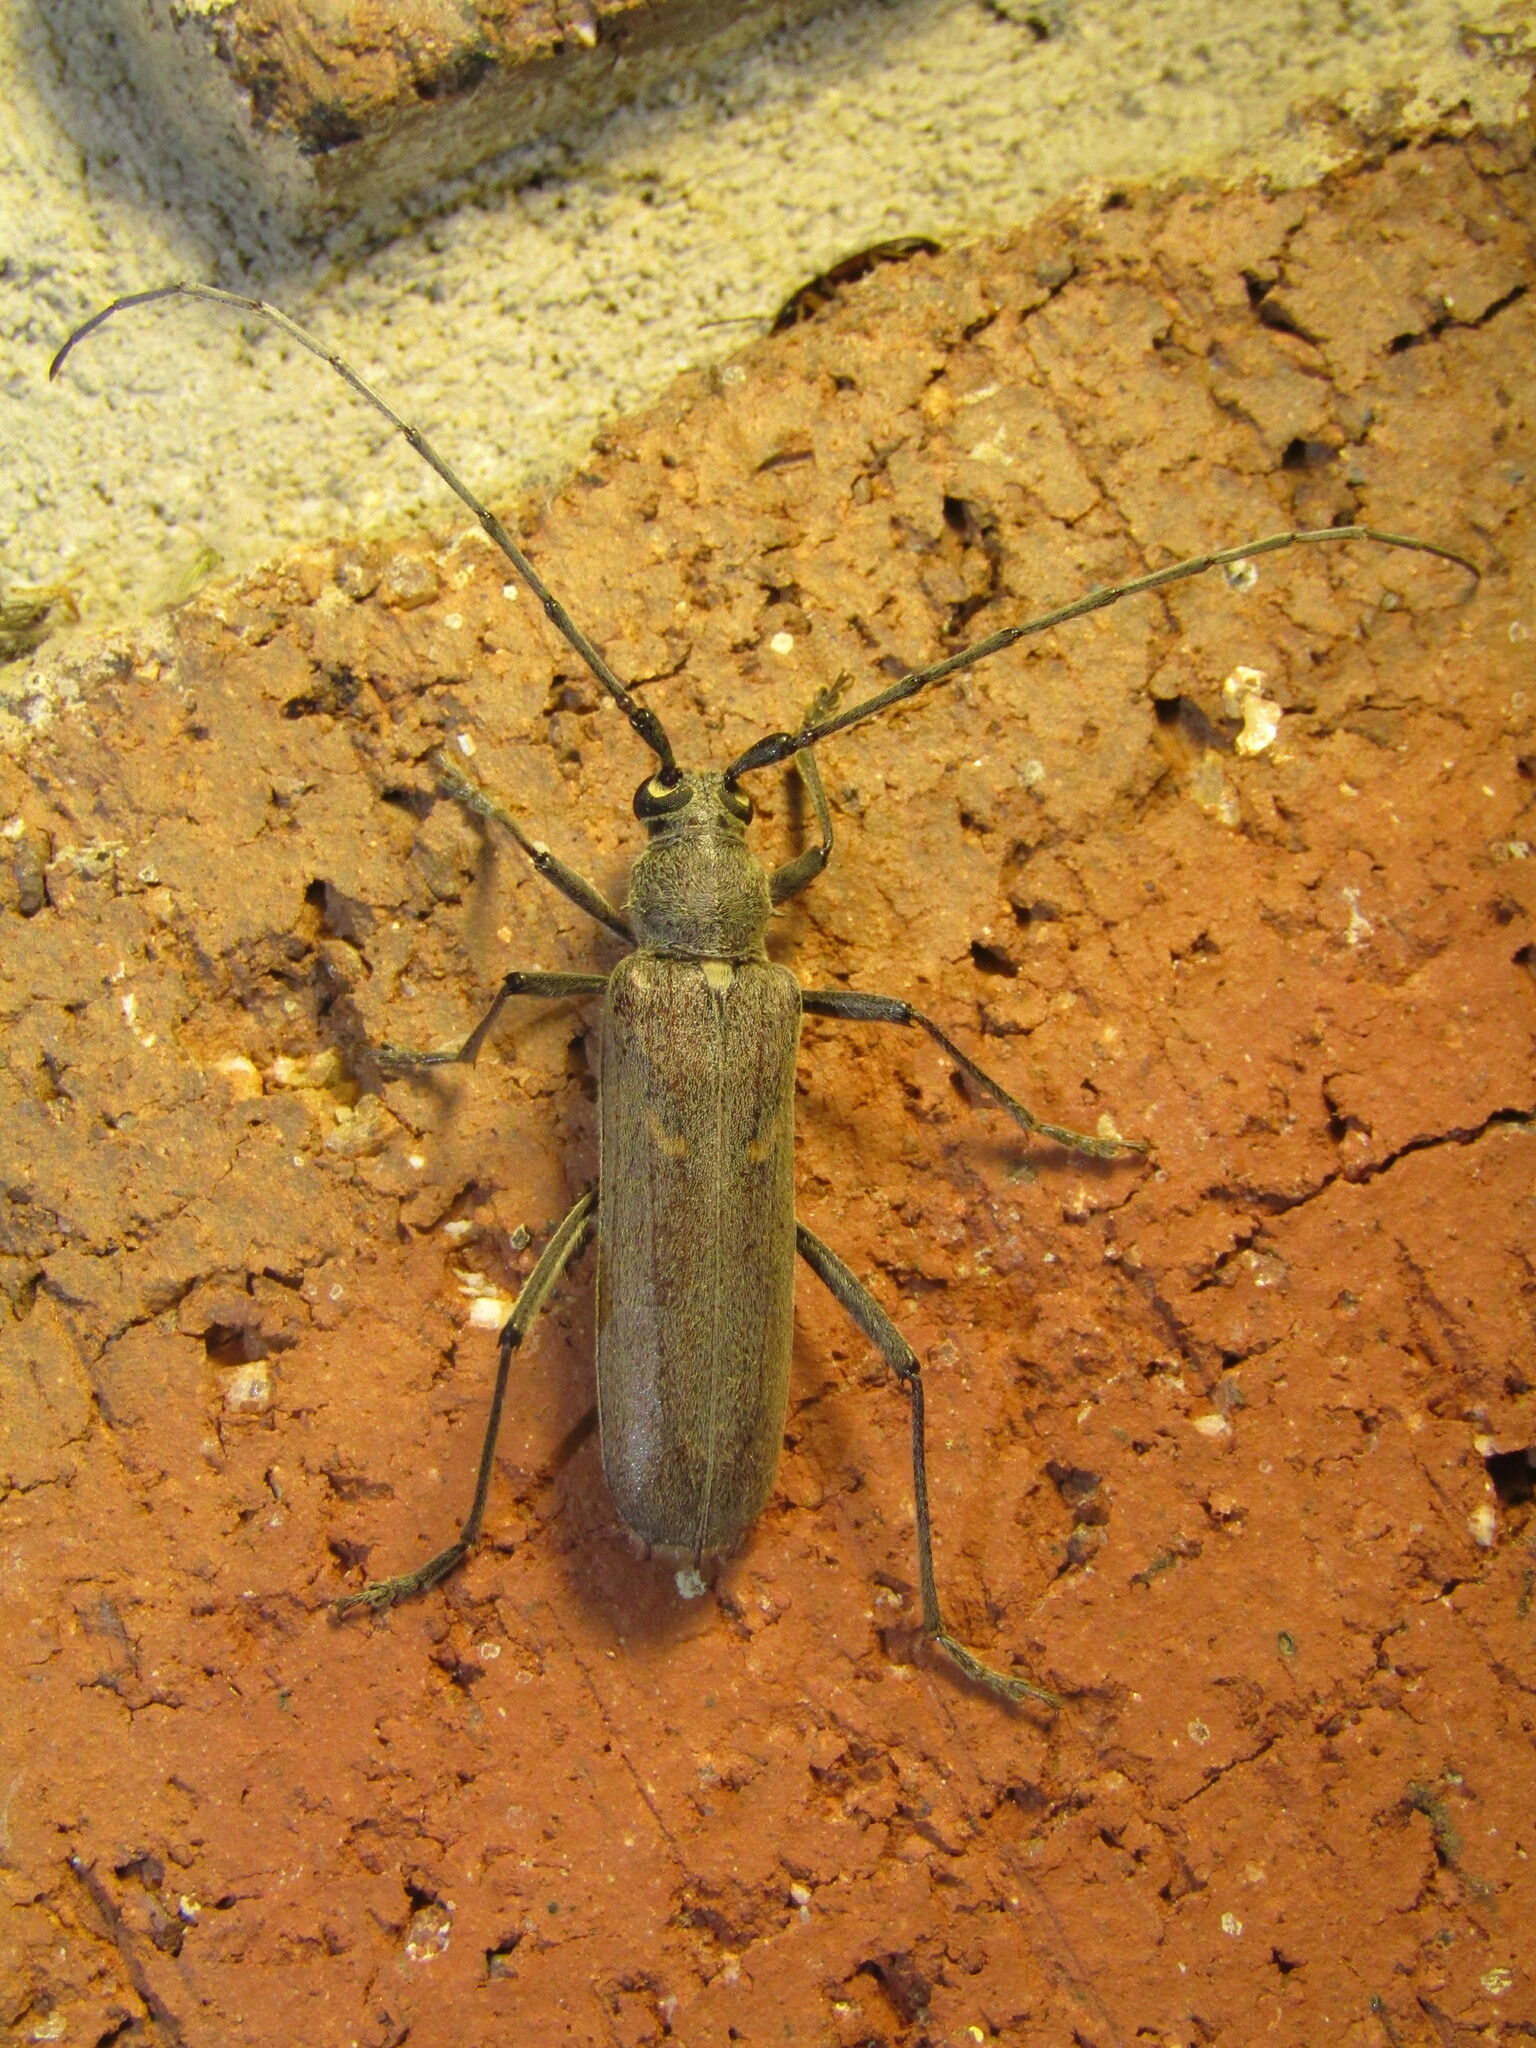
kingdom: Animalia
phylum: Arthropoda
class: Insecta
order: Coleoptera
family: Cerambycidae
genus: Knulliana
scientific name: Knulliana cincta
